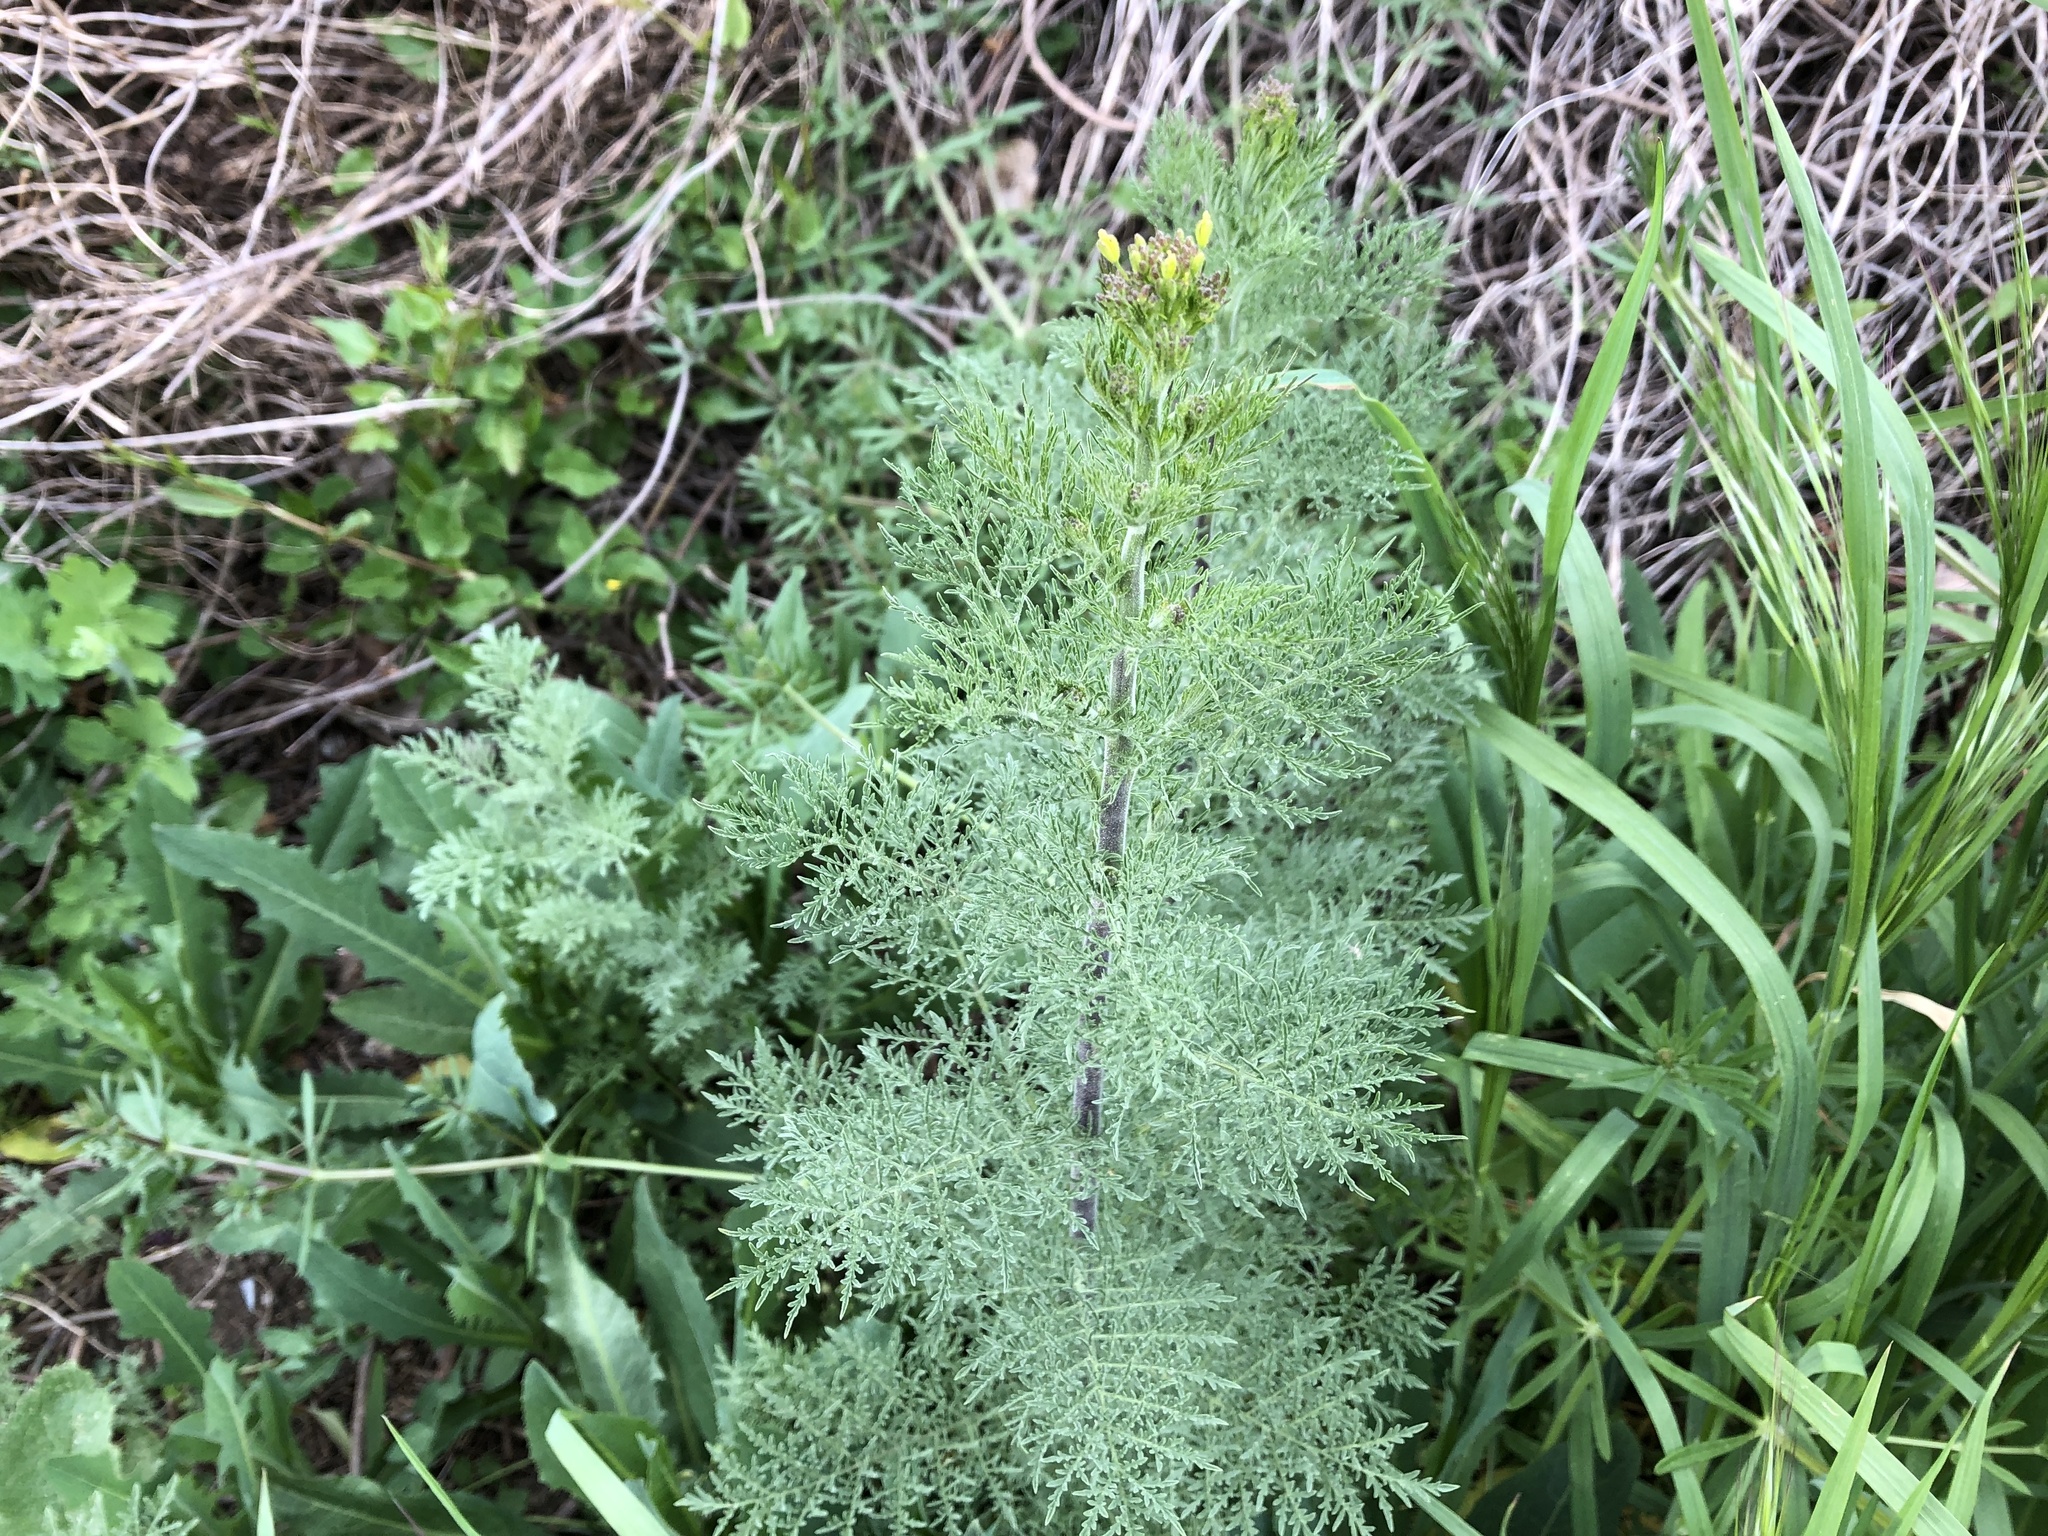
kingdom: Plantae
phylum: Tracheophyta
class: Magnoliopsida
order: Brassicales
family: Brassicaceae
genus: Descurainia
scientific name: Descurainia sophia
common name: Flixweed
